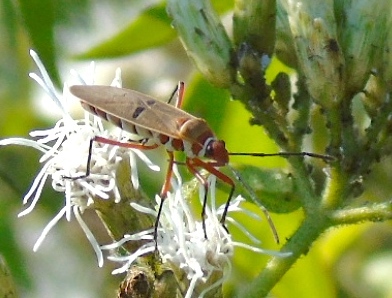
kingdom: Animalia
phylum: Arthropoda
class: Insecta
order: Hemiptera
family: Pyrrhocoridae
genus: Dysdercus
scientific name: Dysdercus bimaculatus
